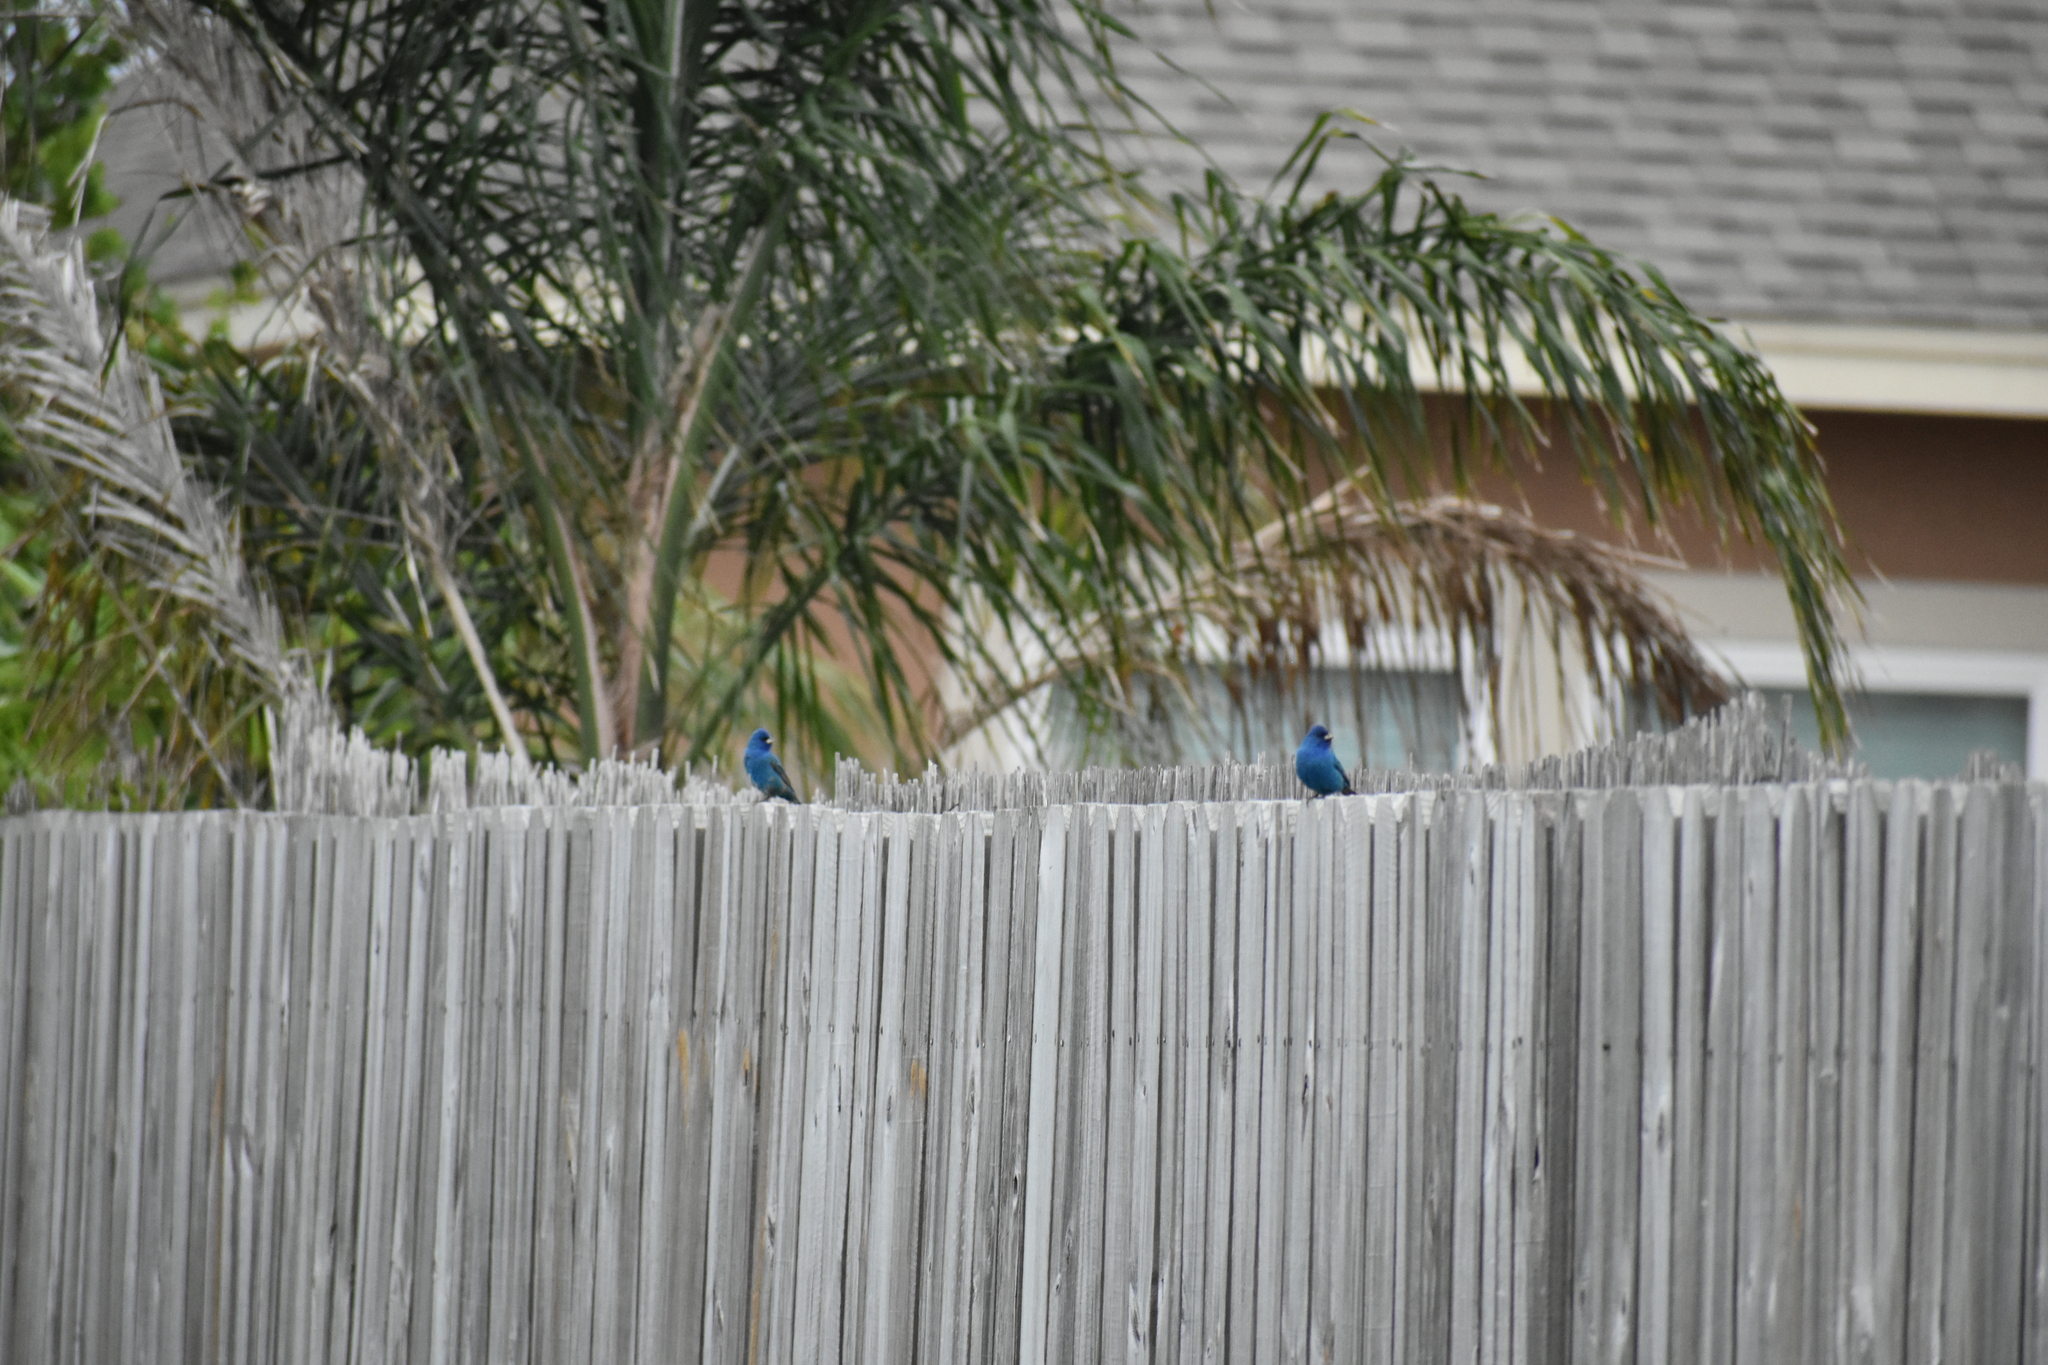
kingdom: Animalia
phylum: Chordata
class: Aves
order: Passeriformes
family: Cardinalidae
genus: Passerina
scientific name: Passerina cyanea
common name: Indigo bunting
